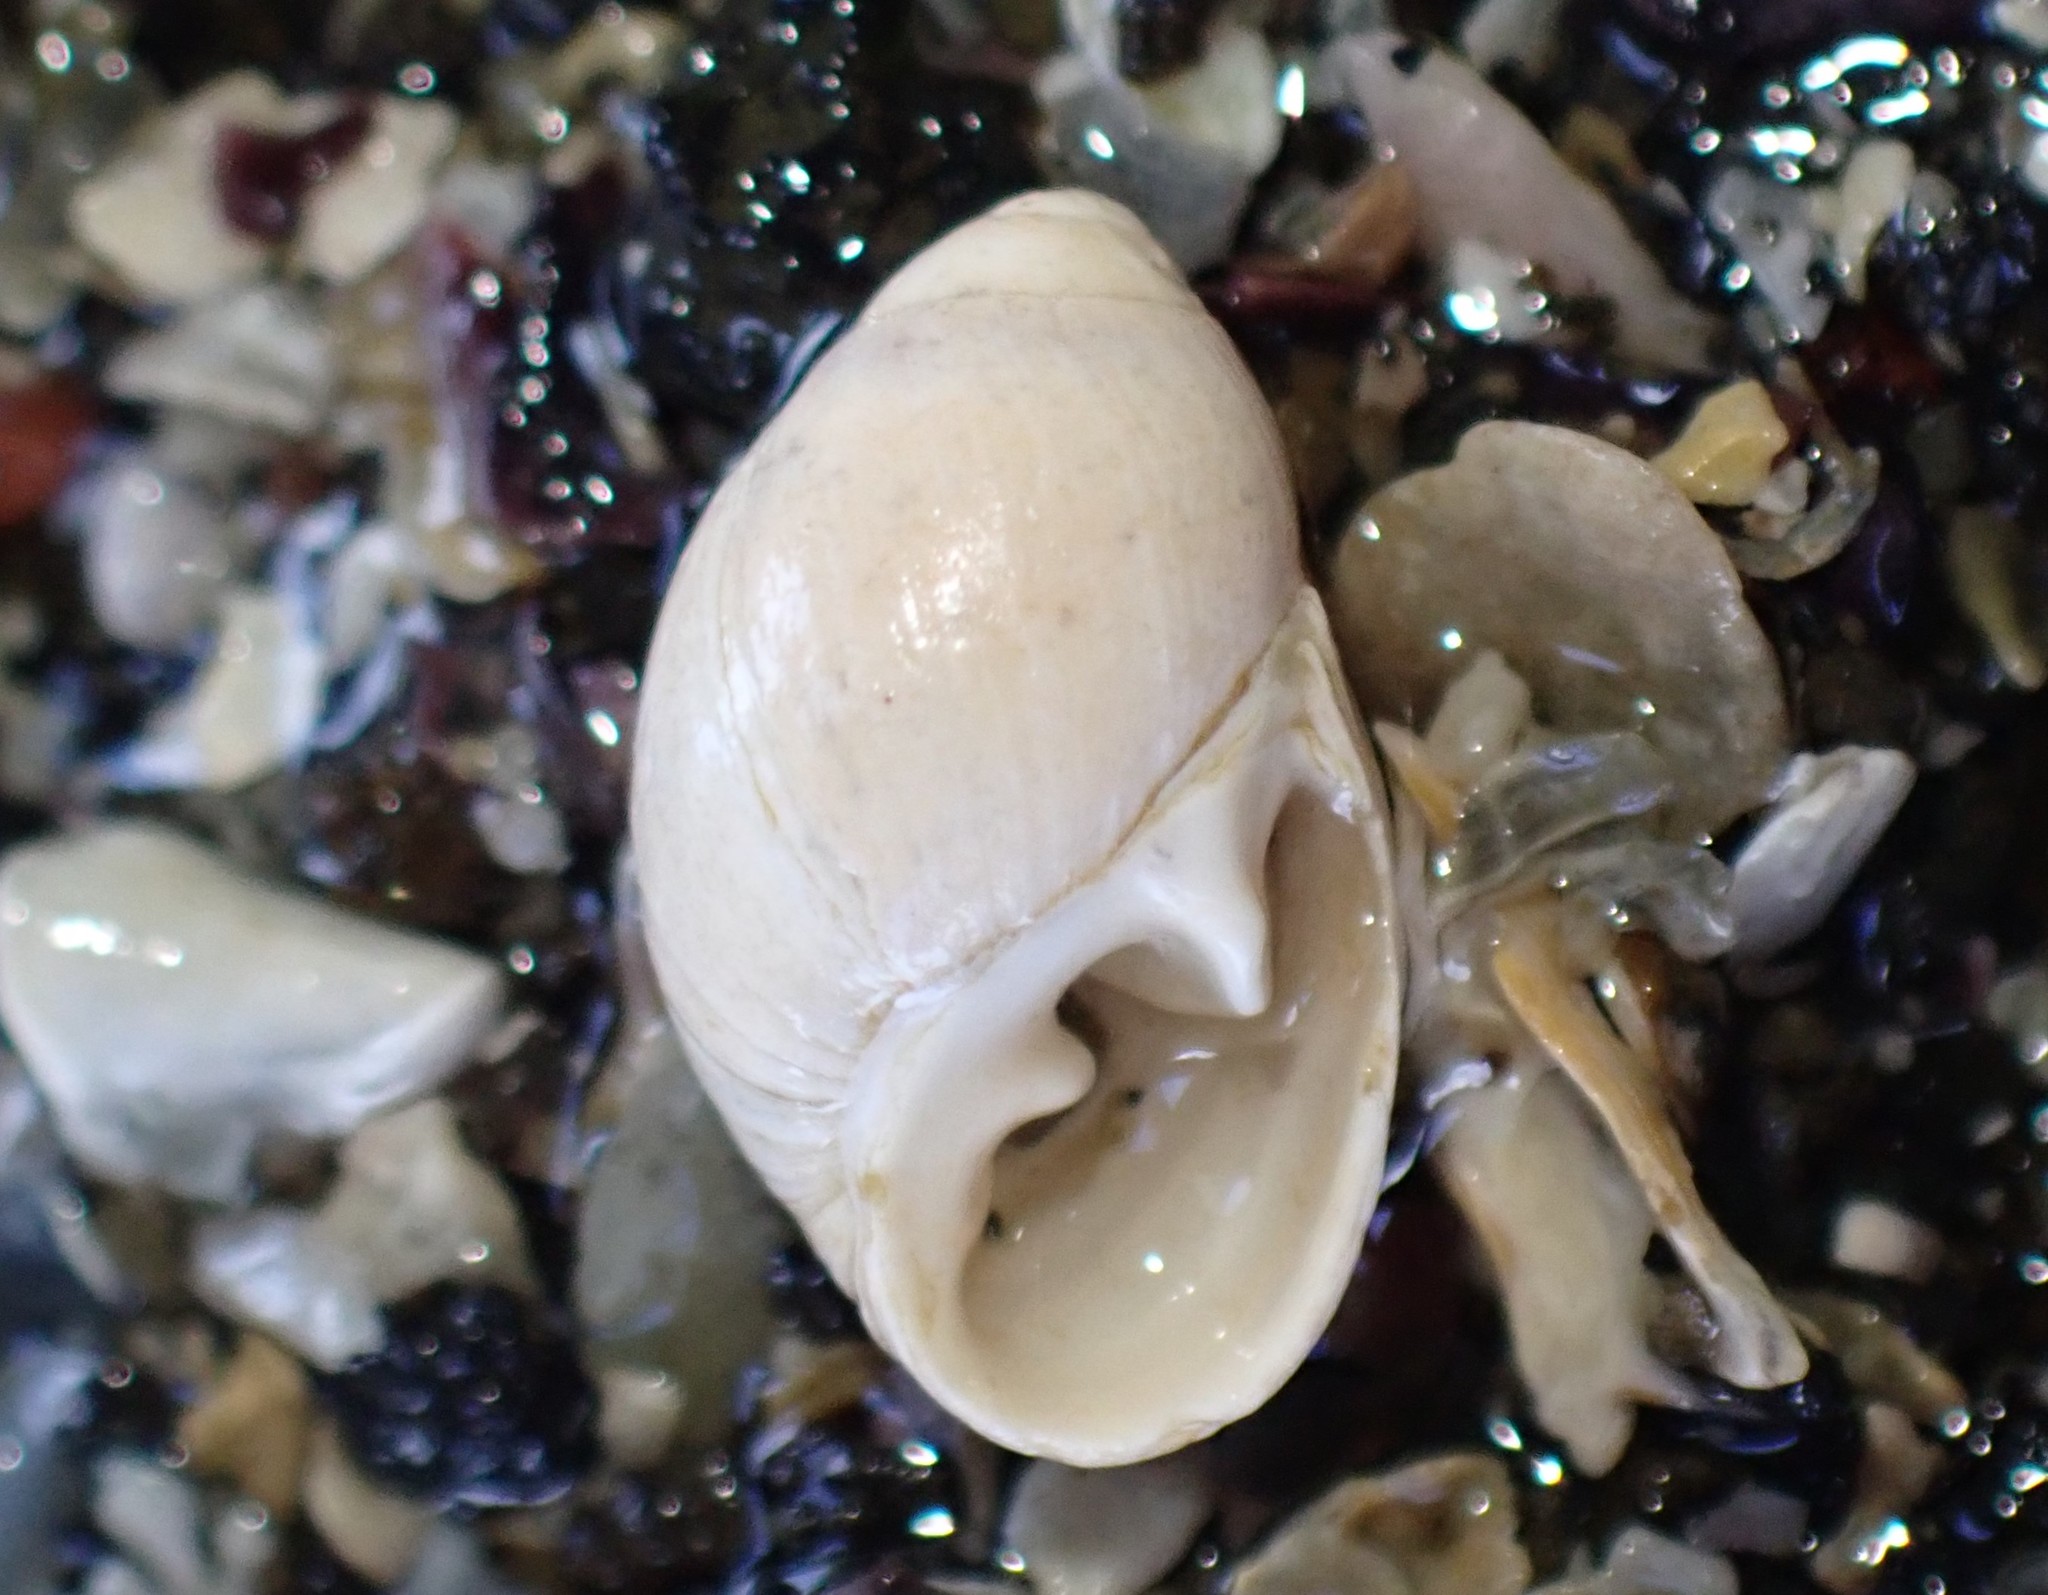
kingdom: Animalia
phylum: Mollusca
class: Gastropoda
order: Ellobiida
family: Ellobiidae
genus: Marinula
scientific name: Marinula filholi
